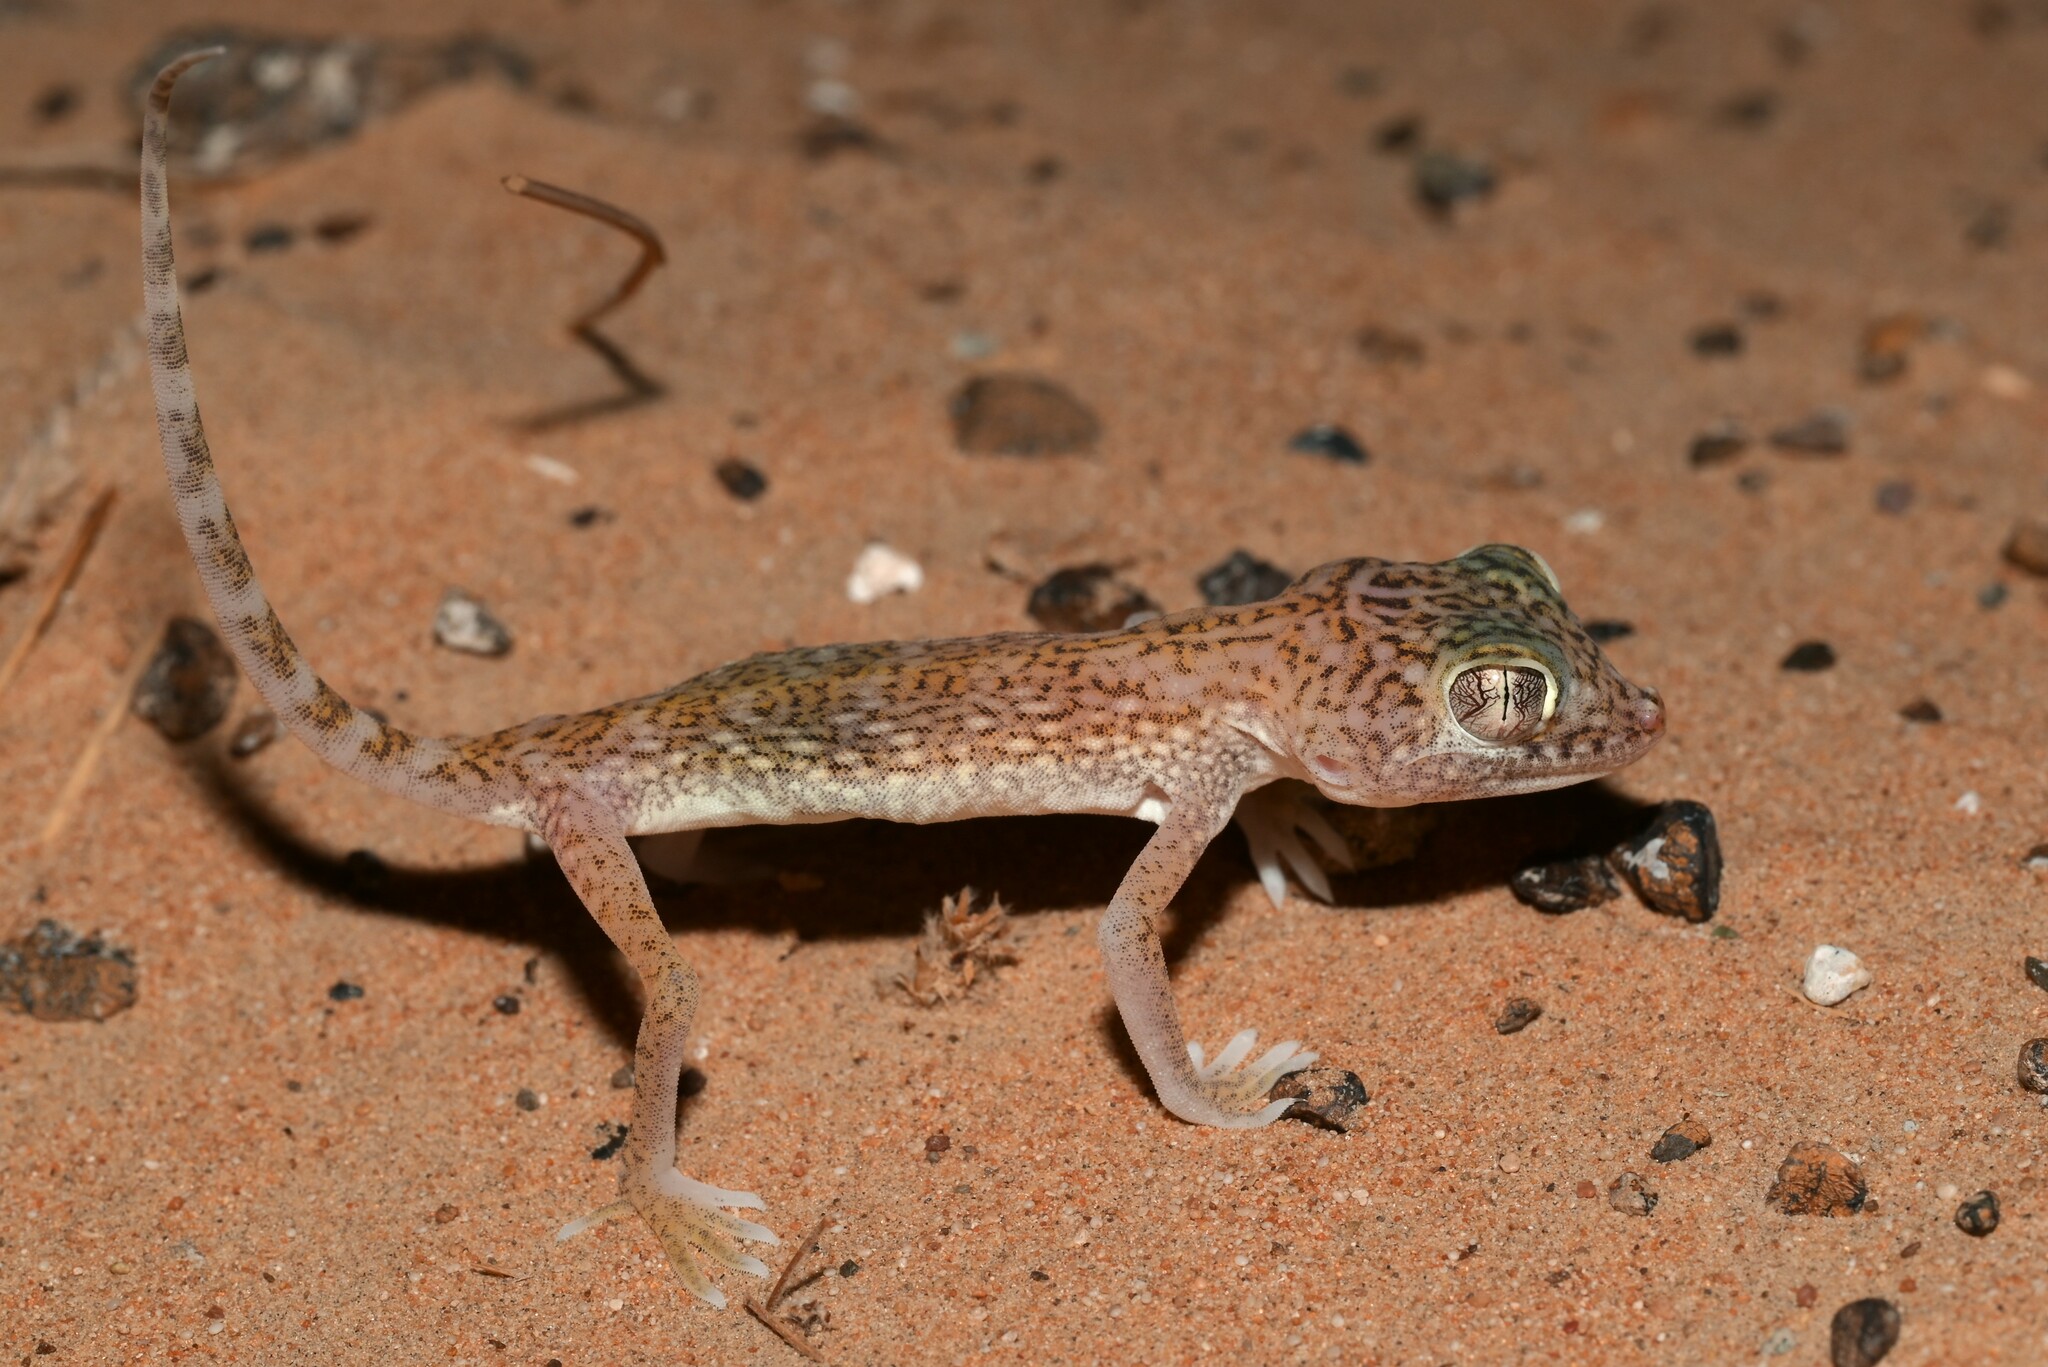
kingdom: Animalia
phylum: Chordata
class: Squamata
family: Gekkonidae
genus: Stenodactylus
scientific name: Stenodactylus doriae
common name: Dune sand gecko
